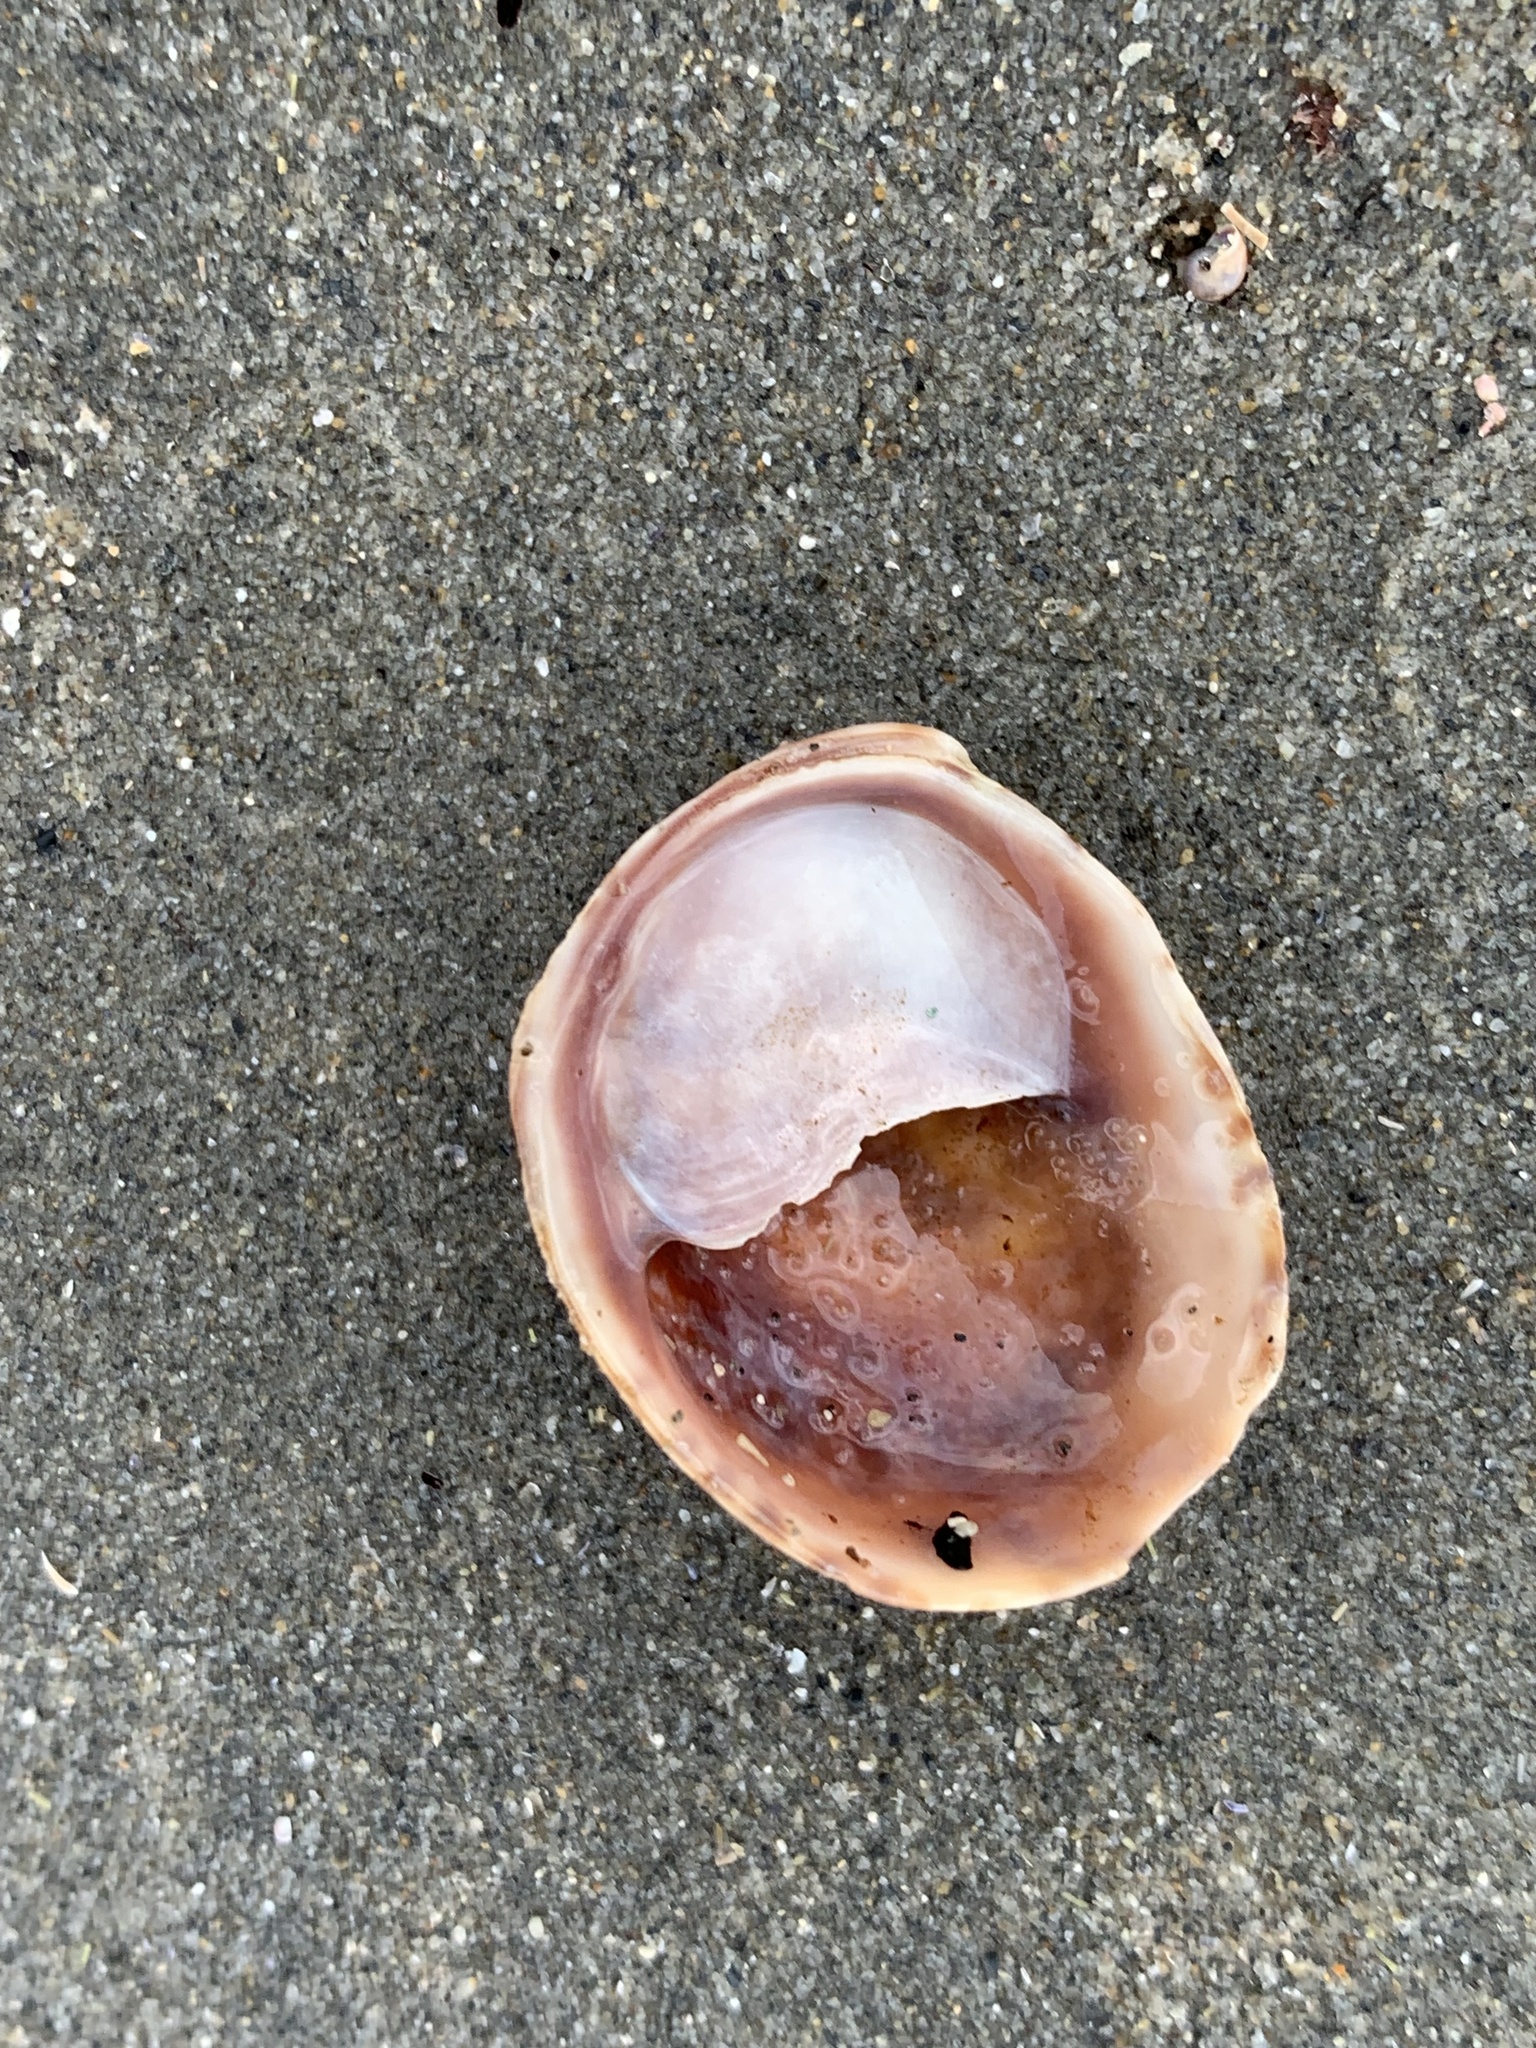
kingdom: Animalia
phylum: Mollusca
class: Gastropoda
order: Littorinimorpha
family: Calyptraeidae
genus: Crepidula
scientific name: Crepidula fornicata
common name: Slipper limpet
